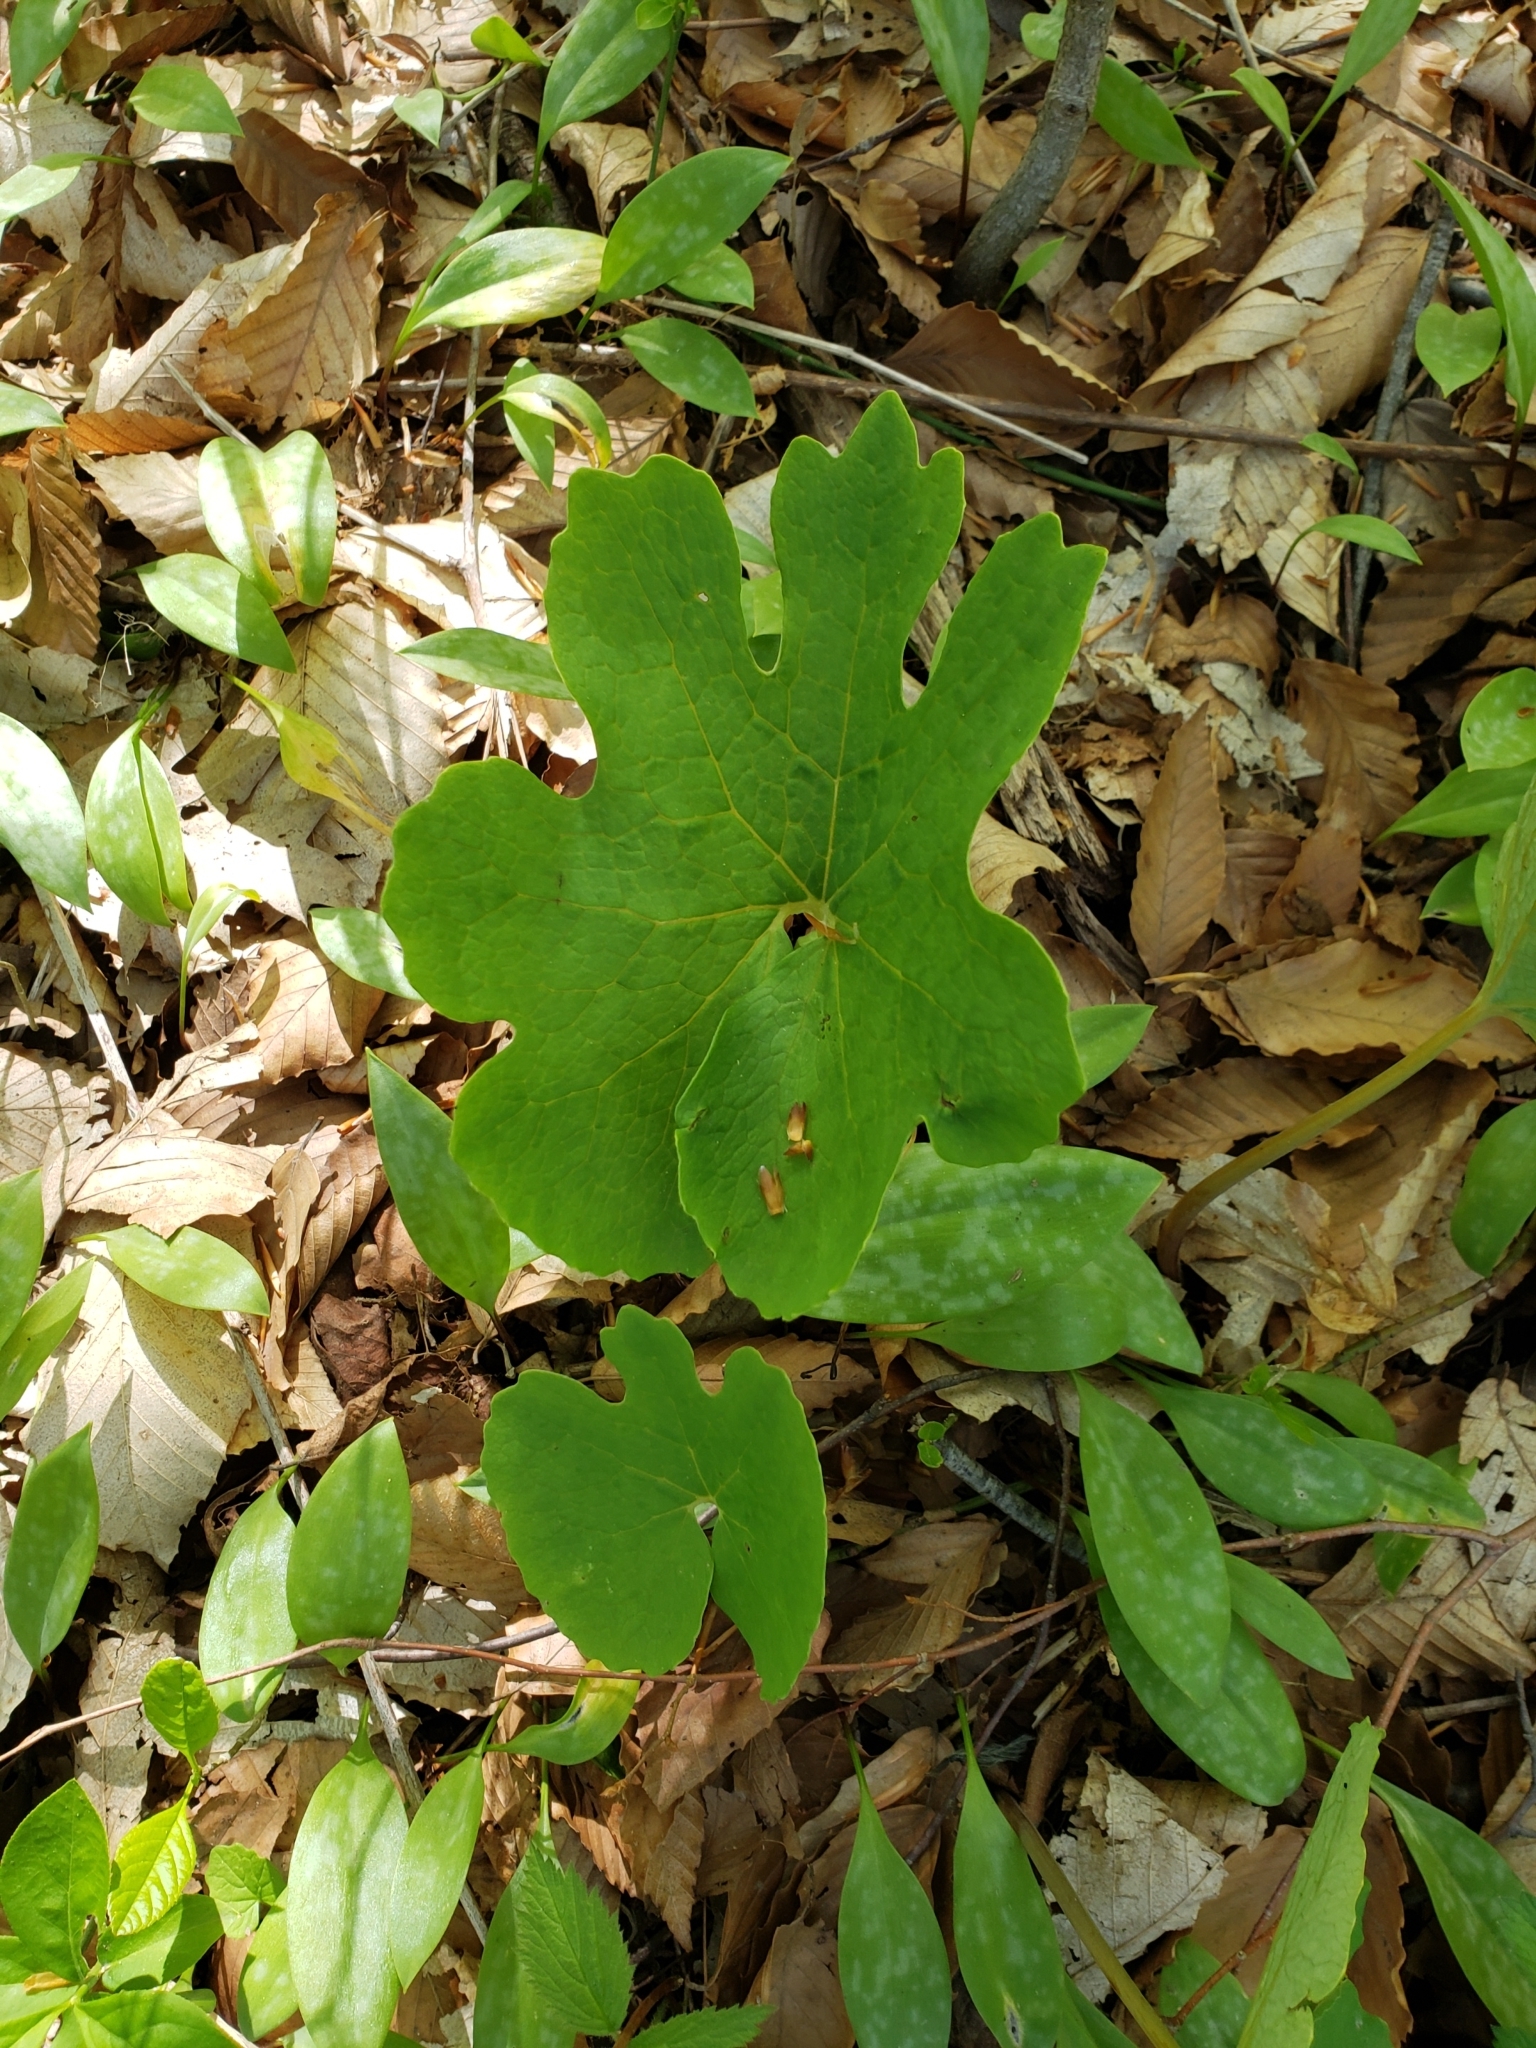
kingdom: Plantae
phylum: Tracheophyta
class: Magnoliopsida
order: Ranunculales
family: Papaveraceae
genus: Sanguinaria
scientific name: Sanguinaria canadensis
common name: Bloodroot
